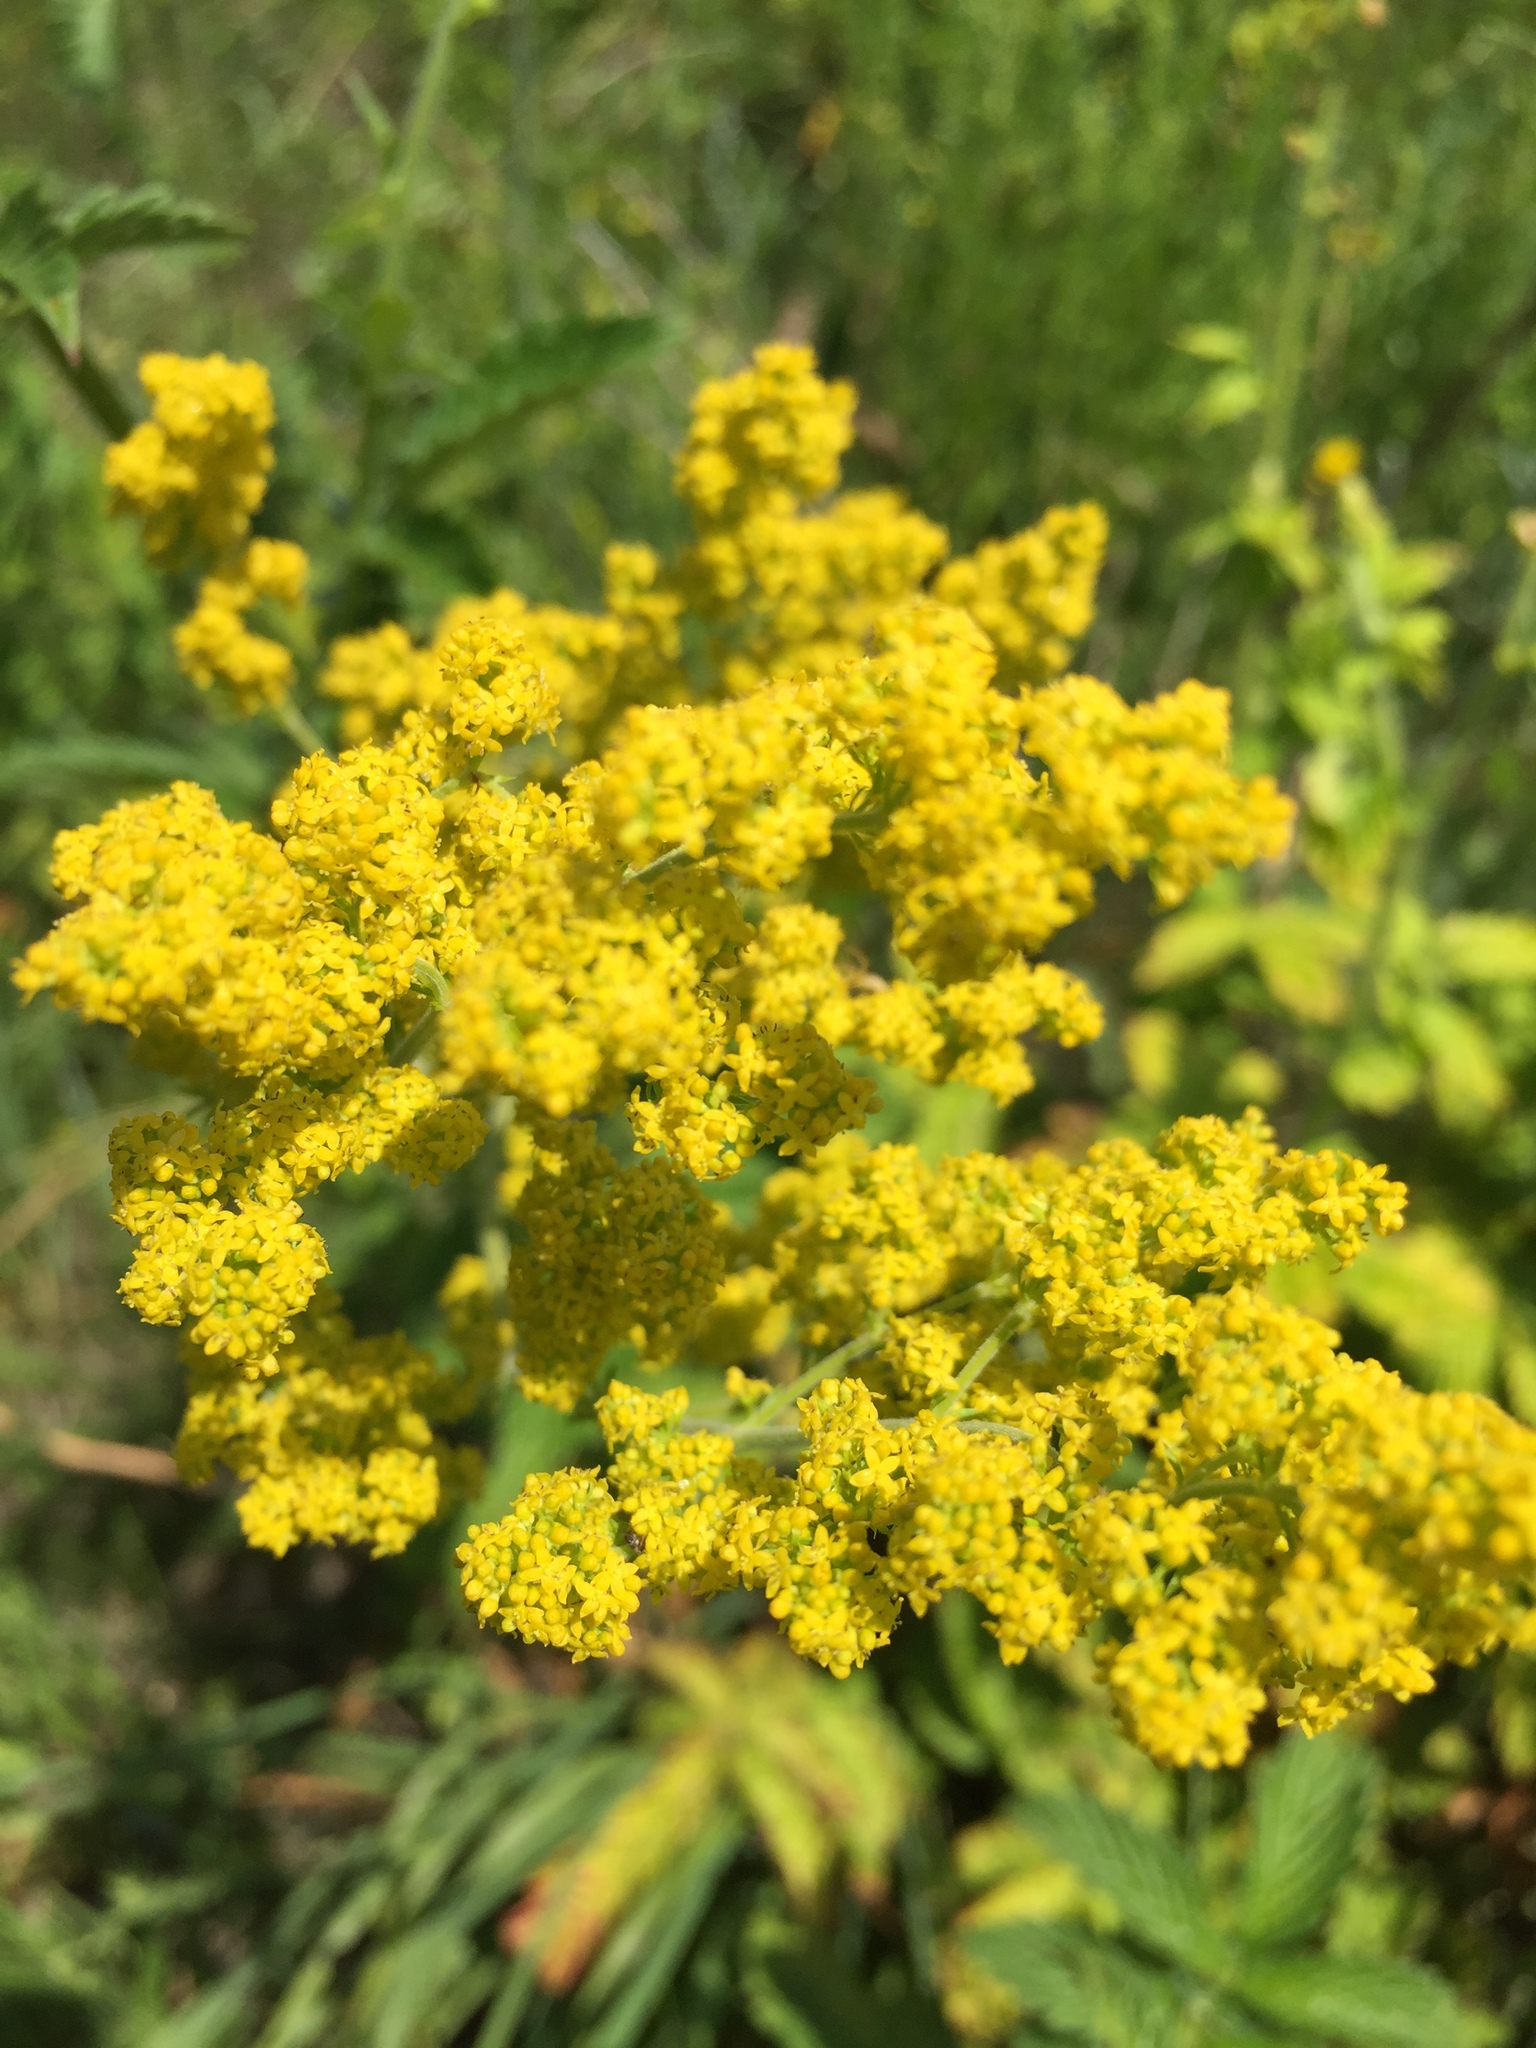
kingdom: Plantae
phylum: Tracheophyta
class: Magnoliopsida
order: Gentianales
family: Rubiaceae
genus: Galium
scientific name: Galium verum
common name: Lady's bedstraw
